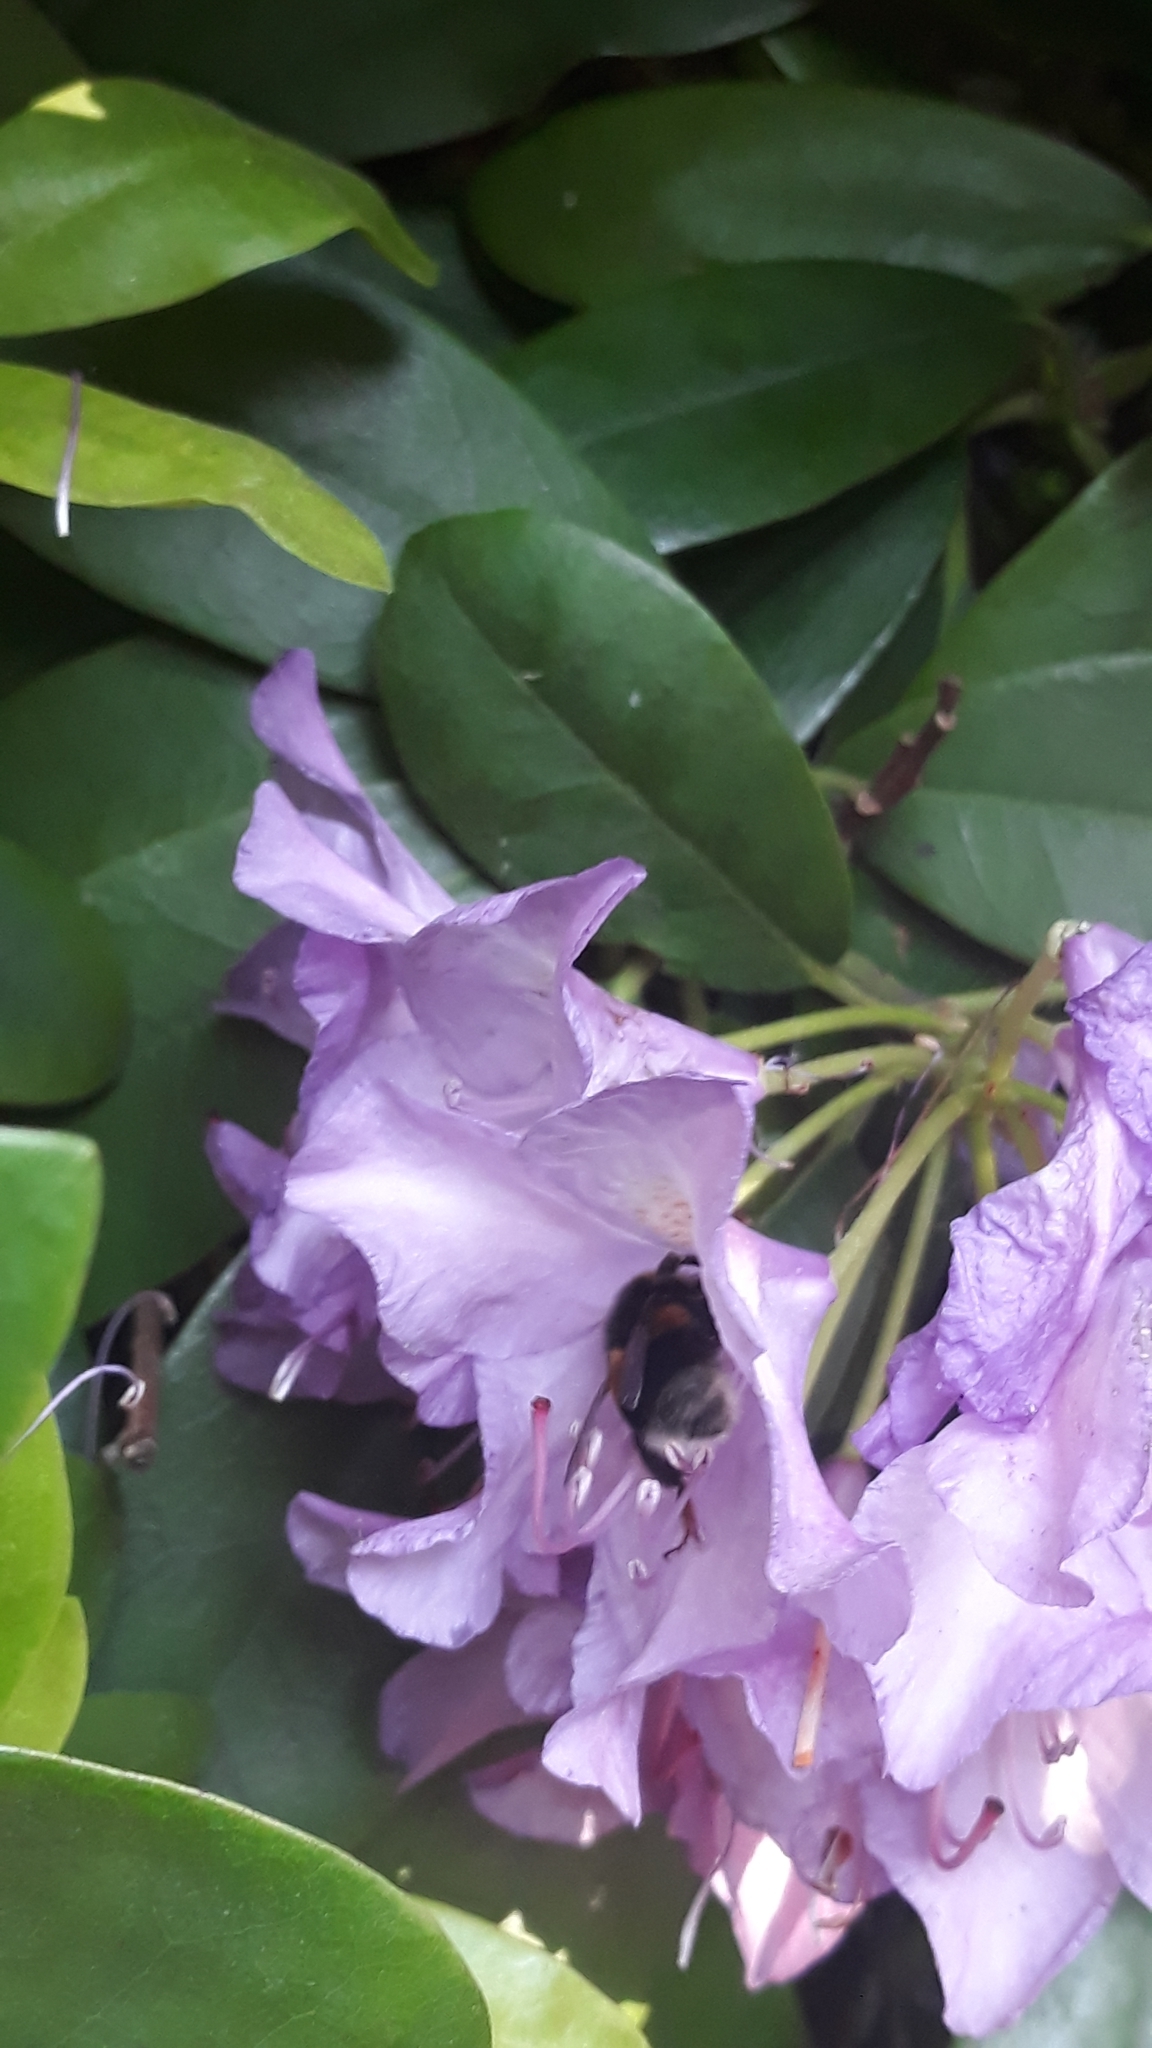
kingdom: Animalia
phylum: Arthropoda
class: Insecta
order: Hymenoptera
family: Apidae
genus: Bombus
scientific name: Bombus terrestris
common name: Buff-tailed bumblebee
